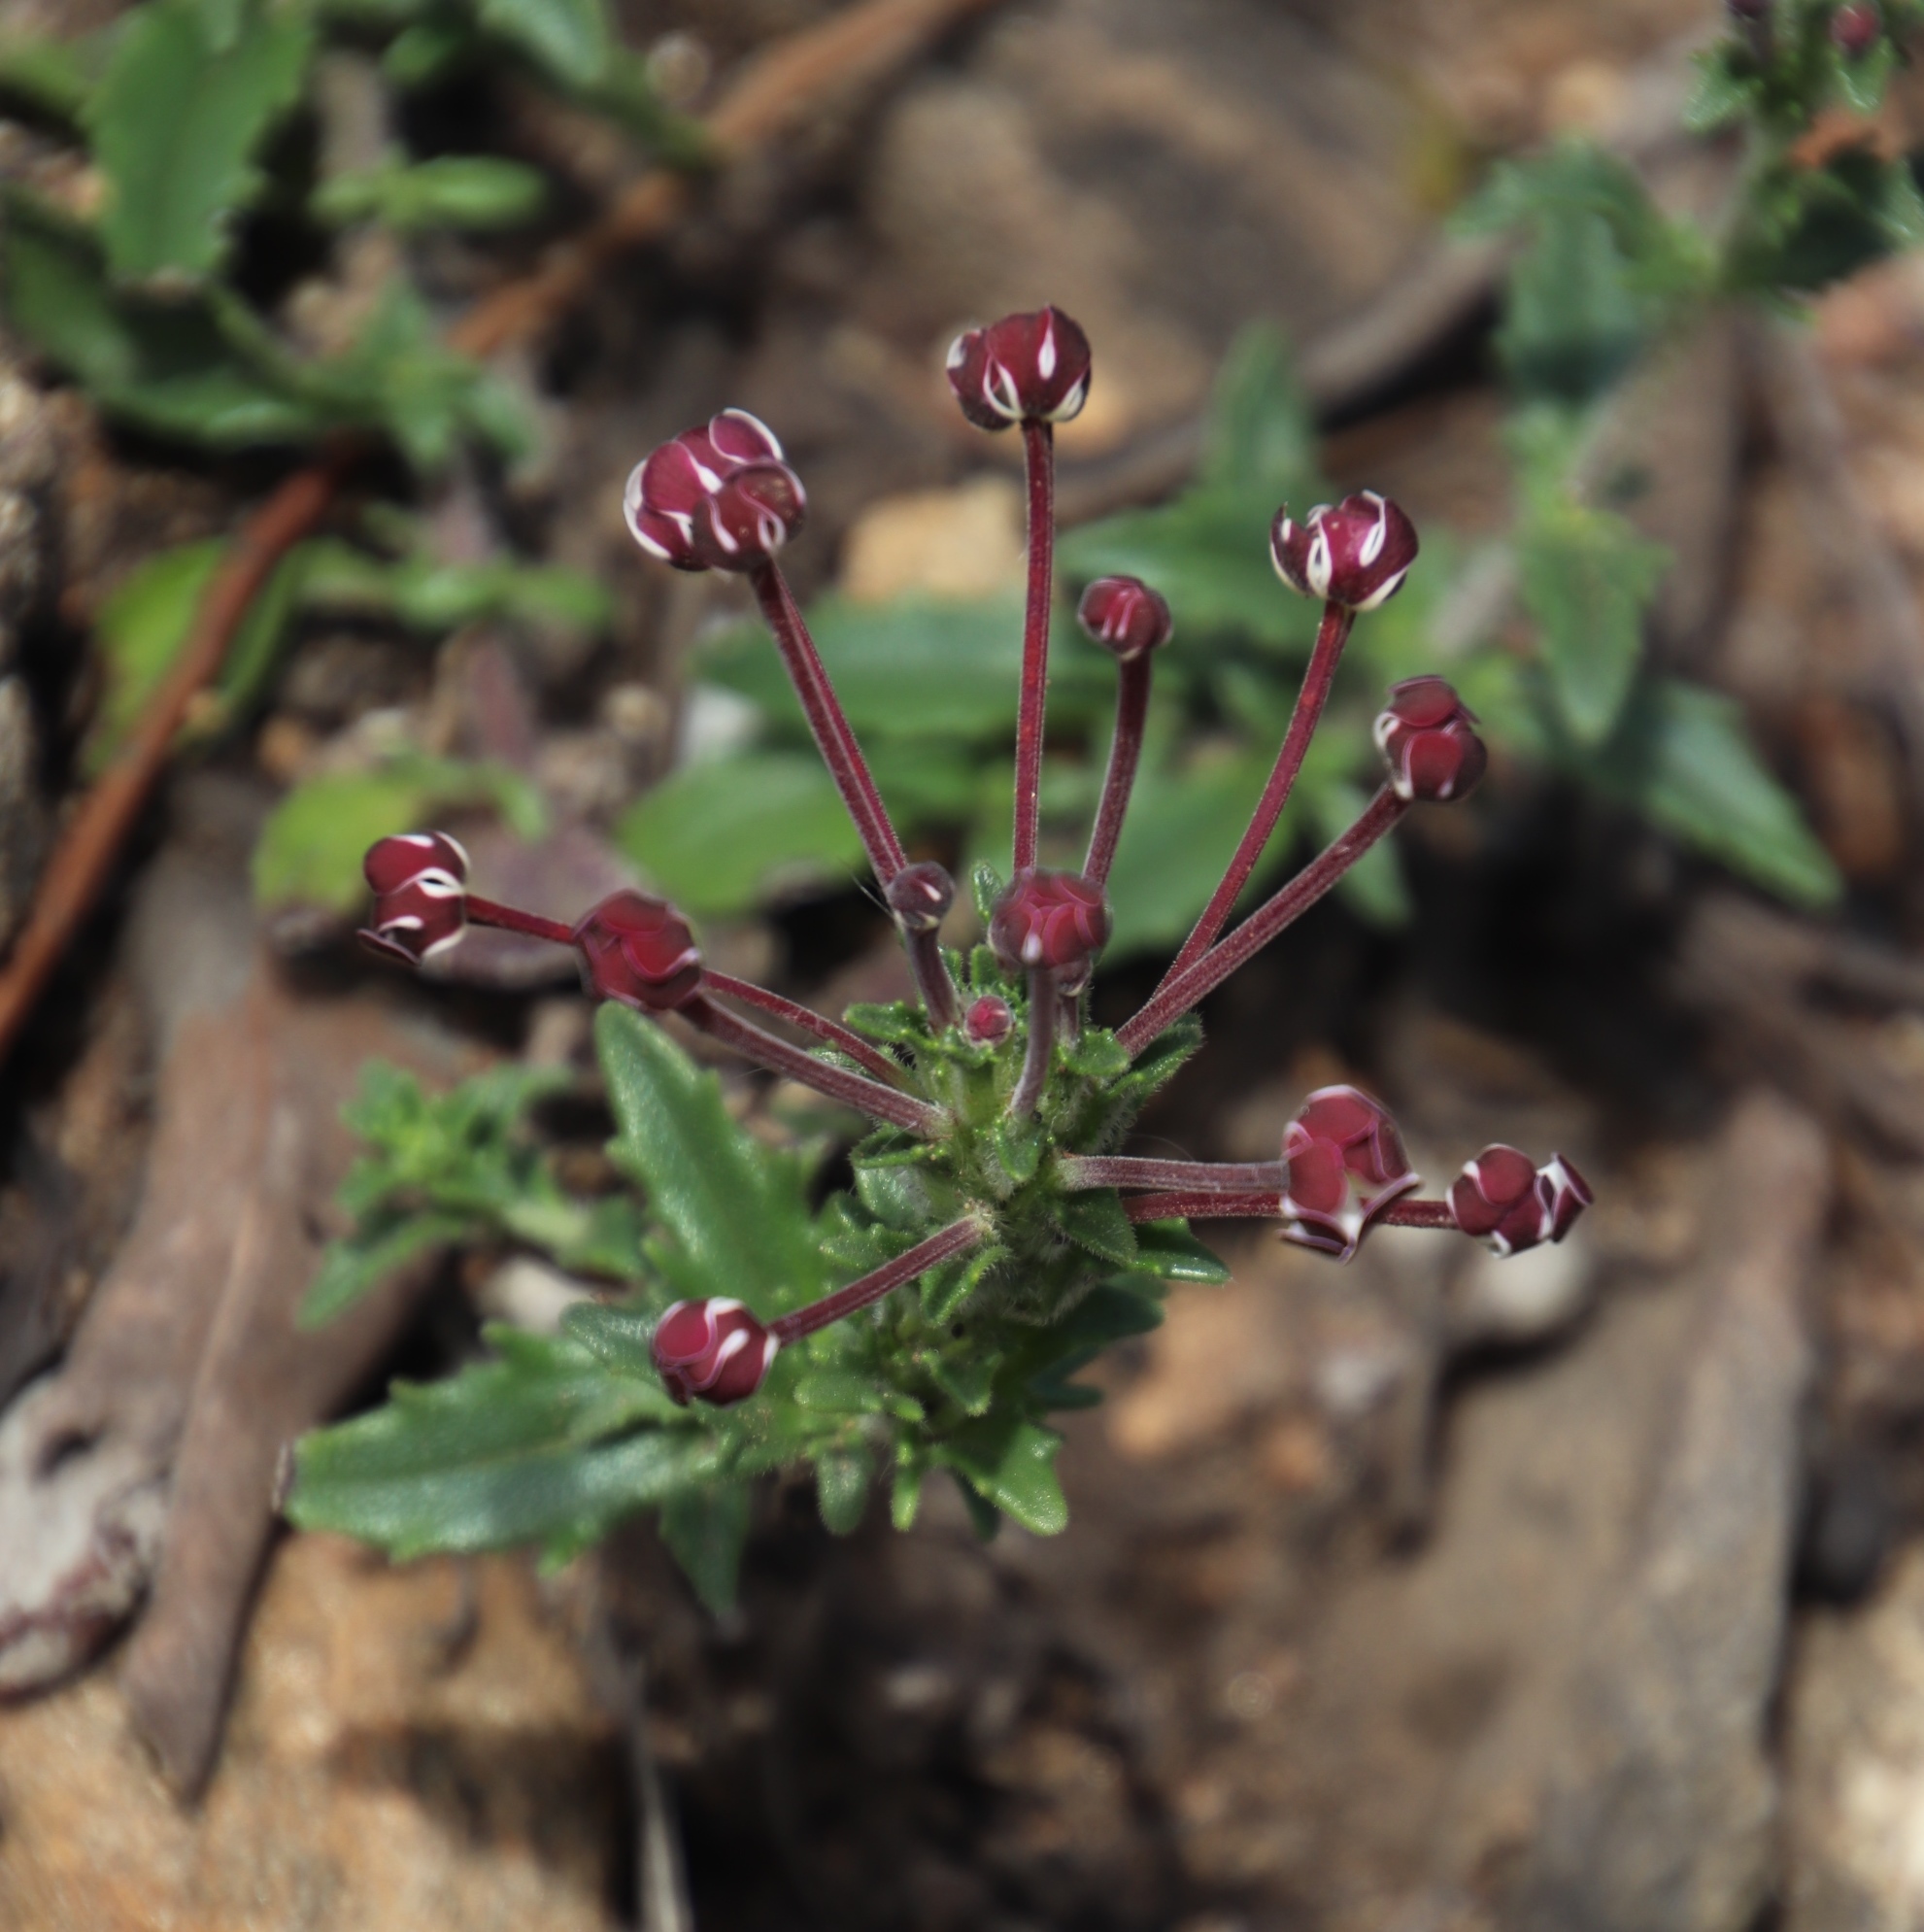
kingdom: Plantae
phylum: Tracheophyta
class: Magnoliopsida
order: Lamiales
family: Scrophulariaceae
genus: Zaluzianskya
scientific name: Zaluzianskya capensis
